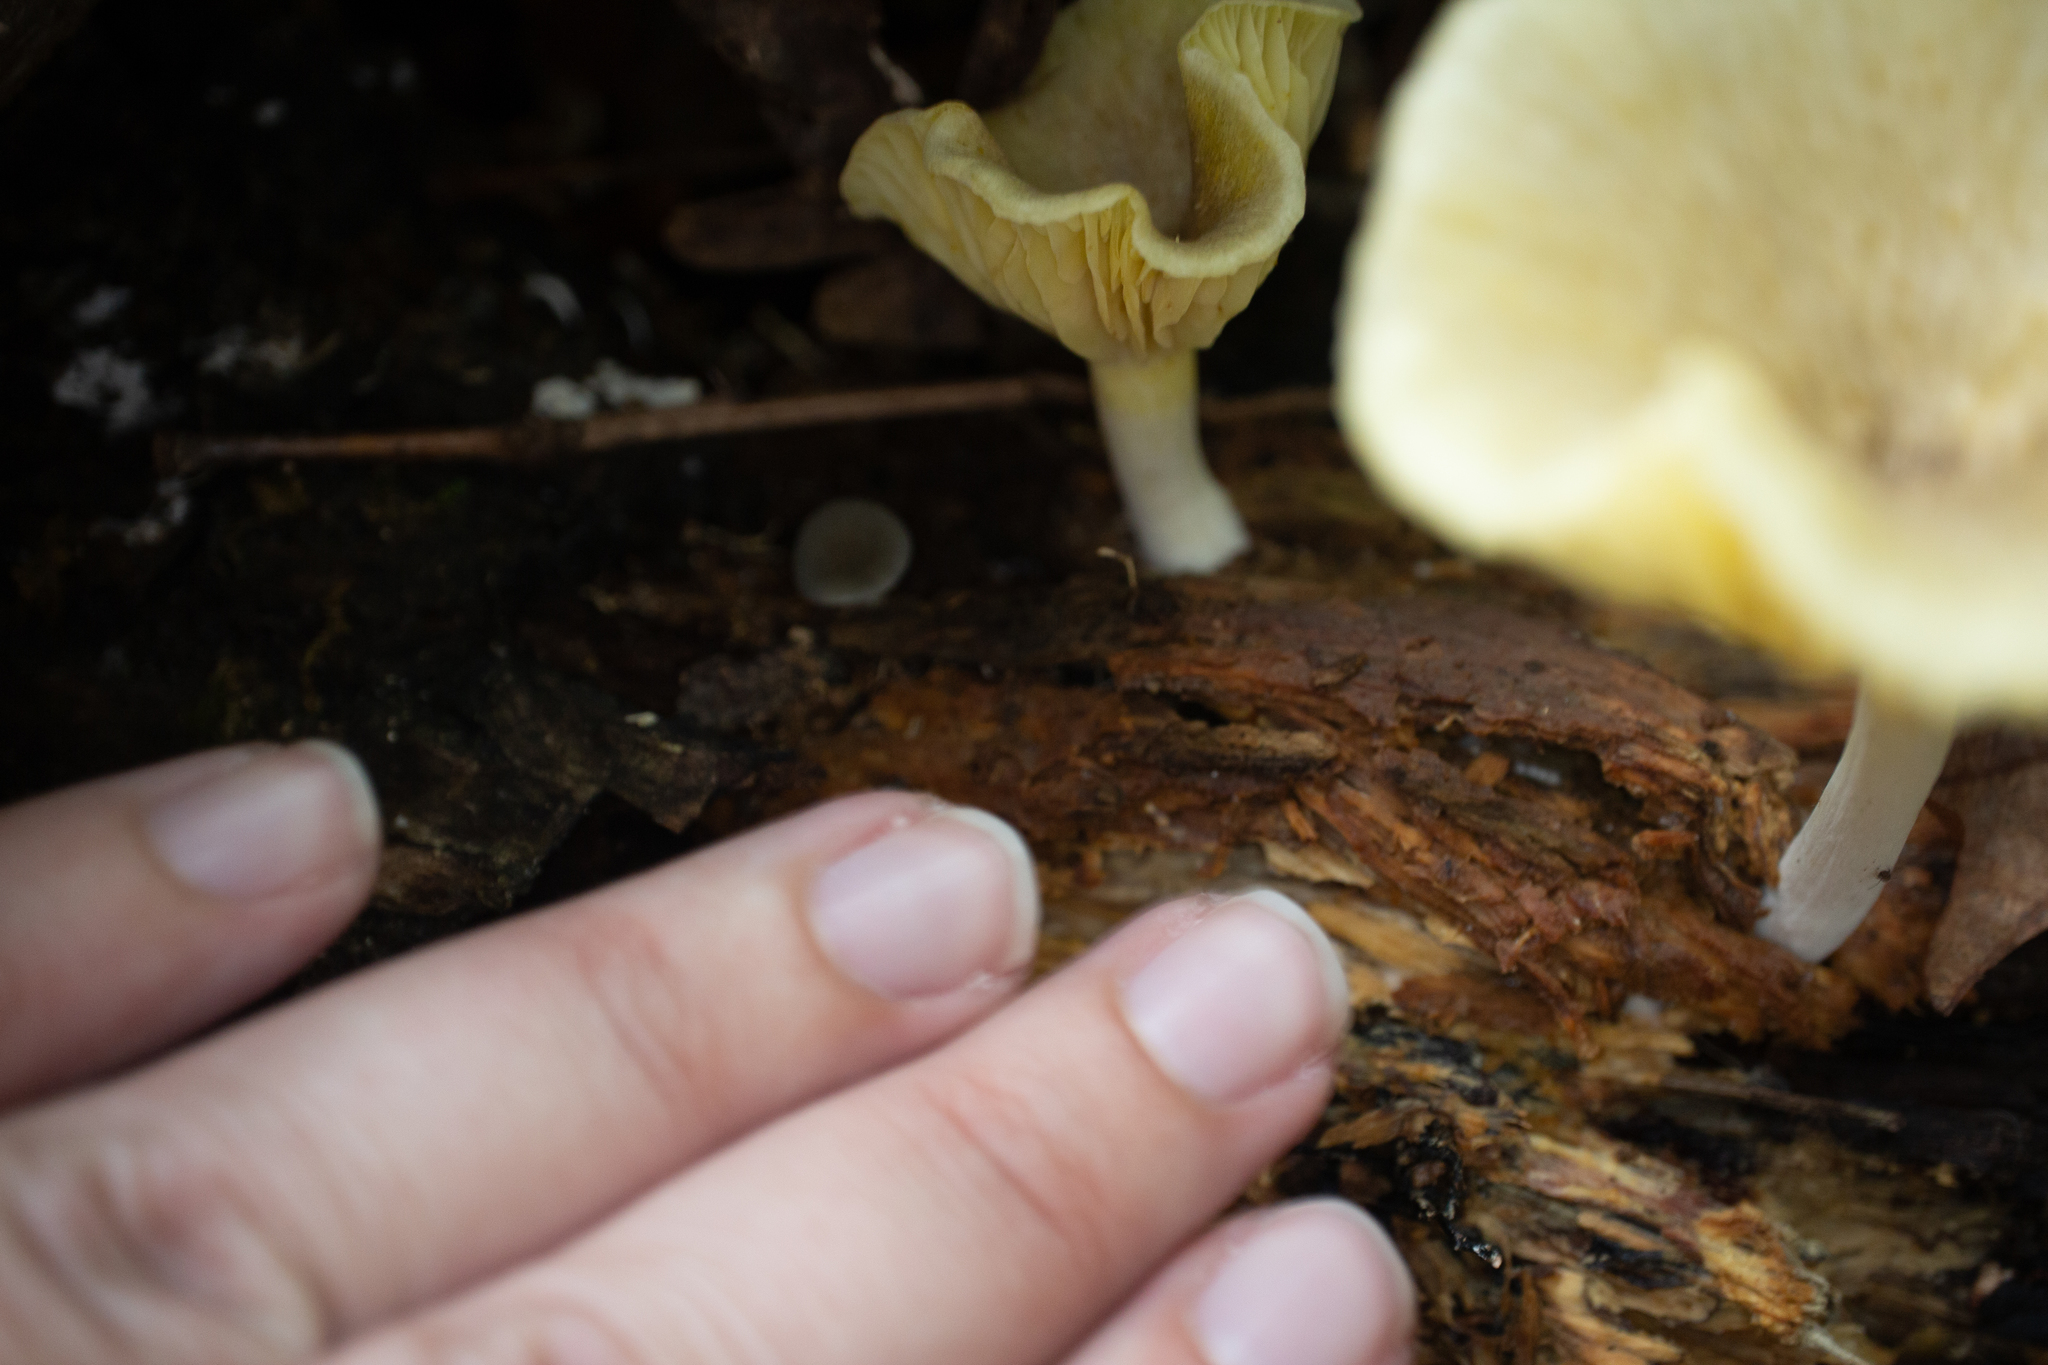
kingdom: Fungi
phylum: Basidiomycota
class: Agaricomycetes
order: Agaricales
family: Marasmiaceae
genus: Gerronema
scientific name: Gerronema strombodes
